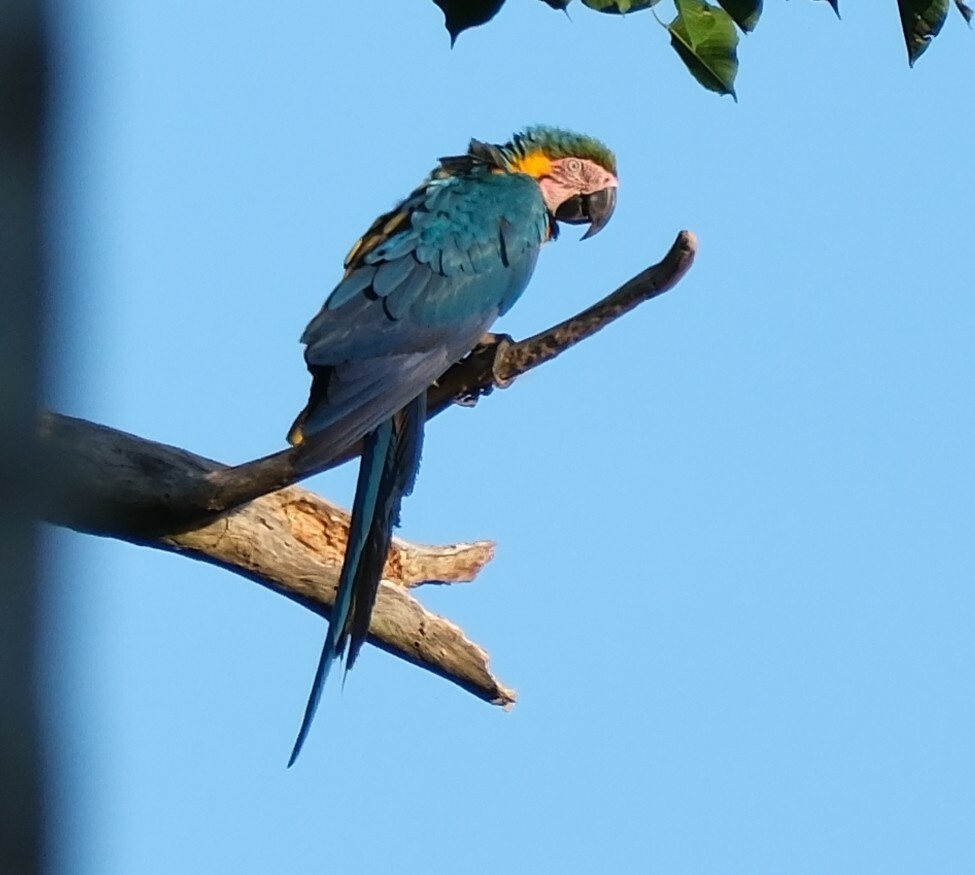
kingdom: Animalia
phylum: Chordata
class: Aves
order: Psittaciformes
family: Psittacidae
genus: Ara
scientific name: Ara ararauna
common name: Blue-and-yellow macaw
